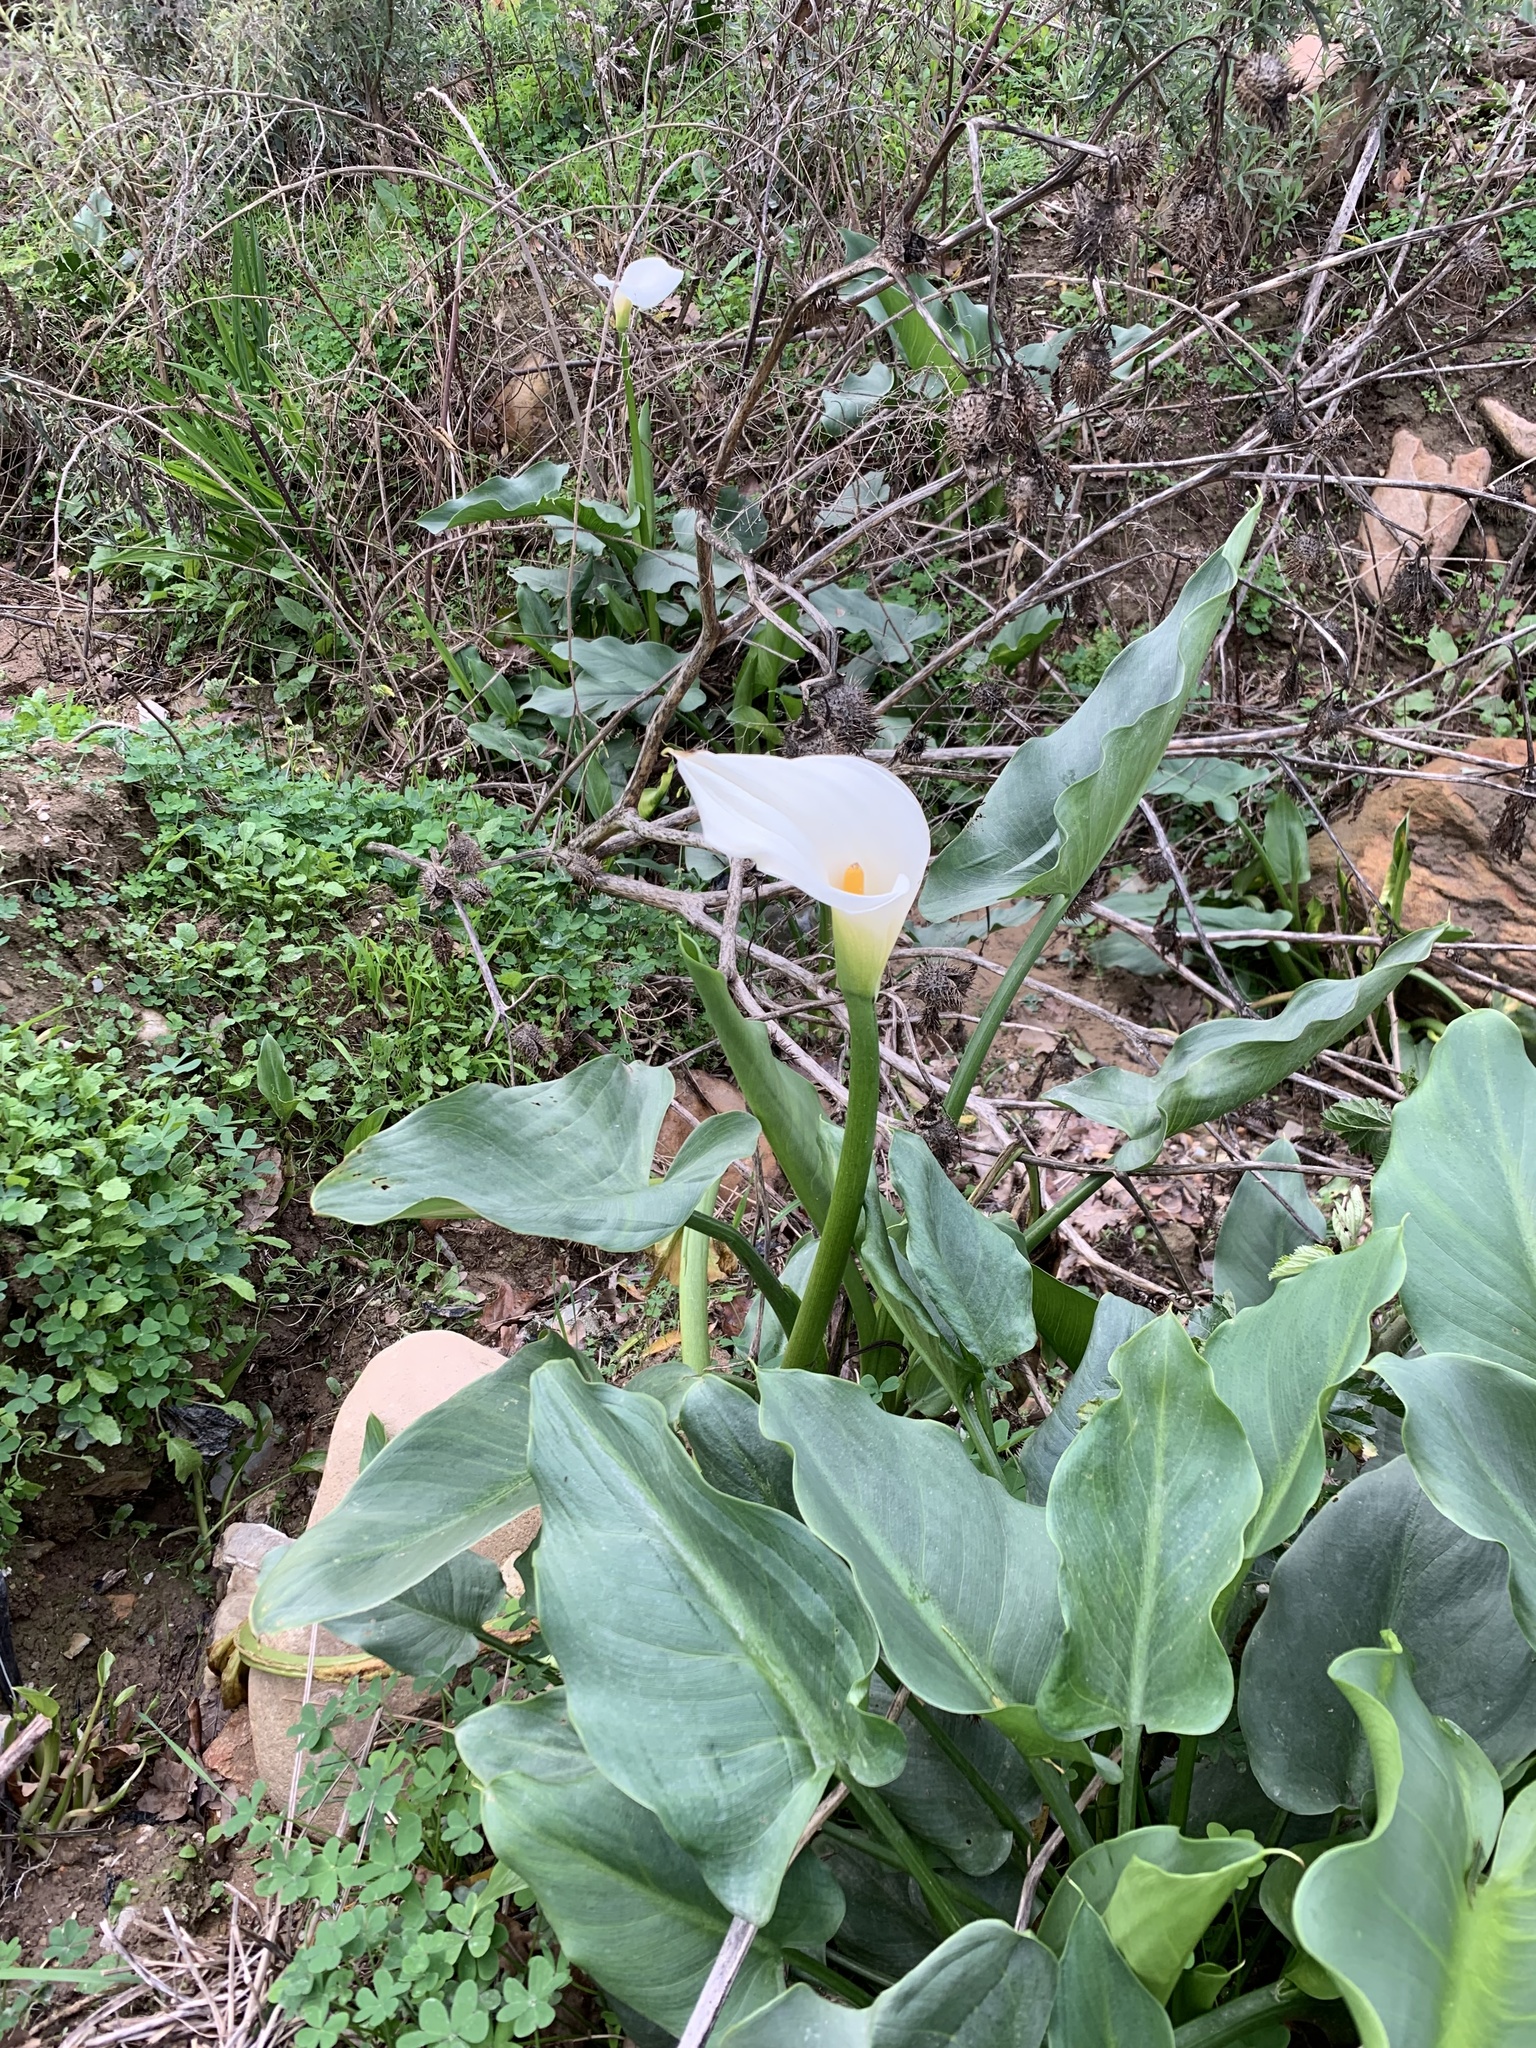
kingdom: Plantae
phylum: Tracheophyta
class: Liliopsida
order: Alismatales
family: Araceae
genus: Zantedeschia
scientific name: Zantedeschia aethiopica
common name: Altar-lily
